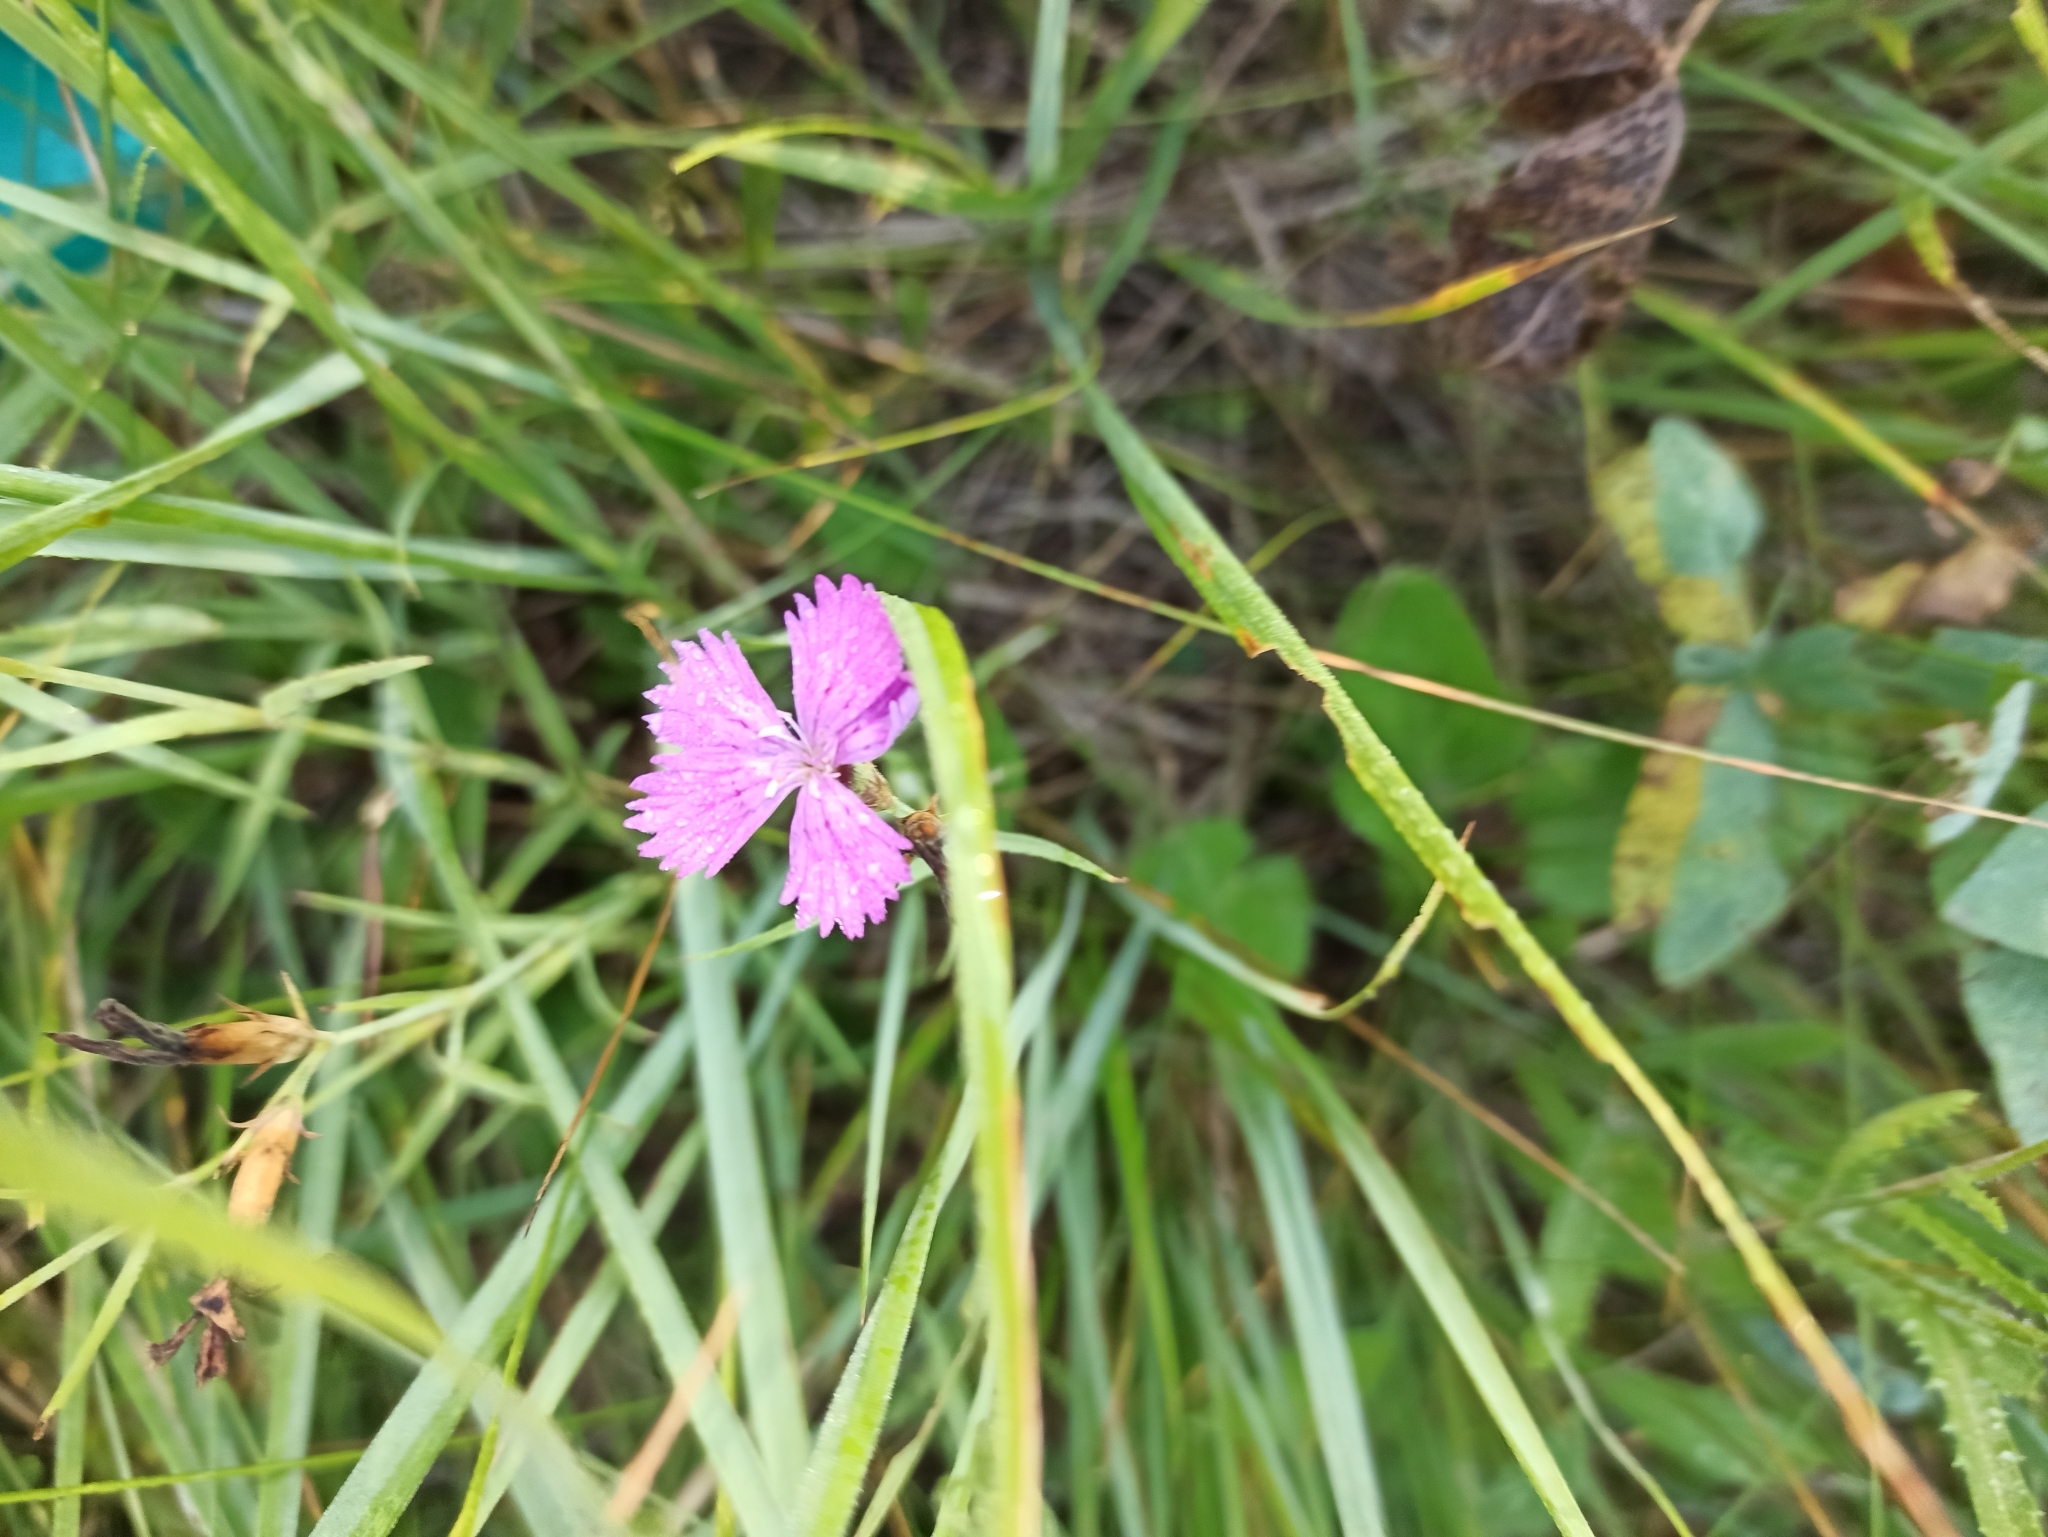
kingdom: Plantae
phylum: Tracheophyta
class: Magnoliopsida
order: Caryophyllales
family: Caryophyllaceae
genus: Dianthus
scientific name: Dianthus chinensis
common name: Rainbow pink
